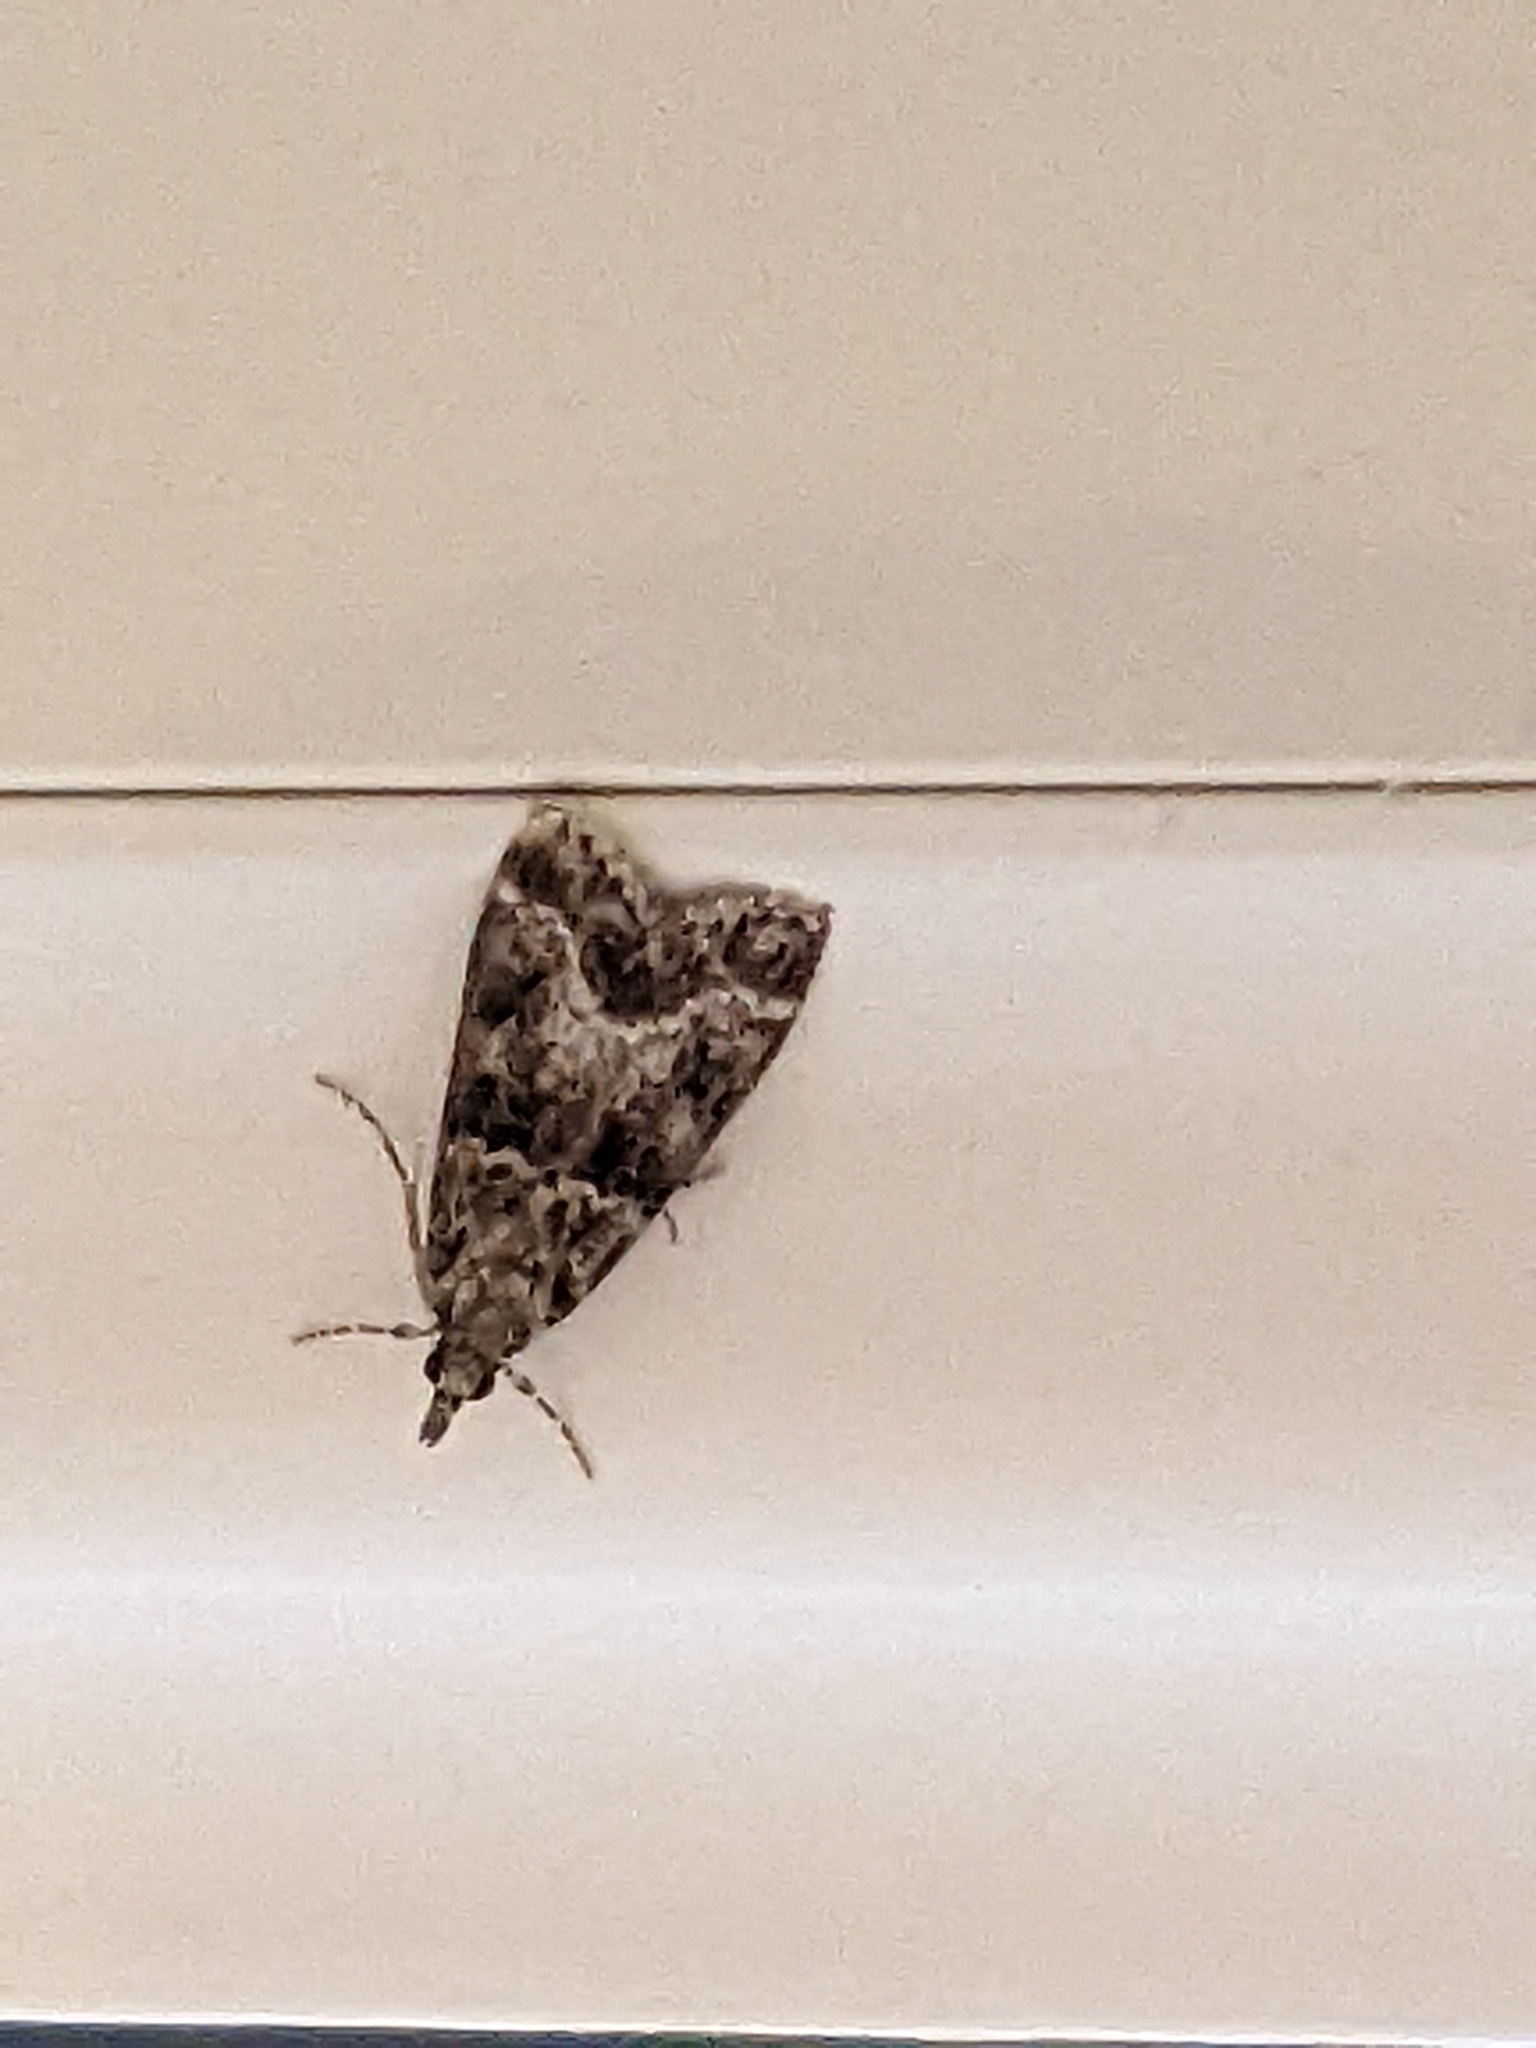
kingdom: Animalia
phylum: Arthropoda
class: Insecta
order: Lepidoptera
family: Crambidae
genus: Eudonia
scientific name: Eudonia mercurella
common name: Small grey
